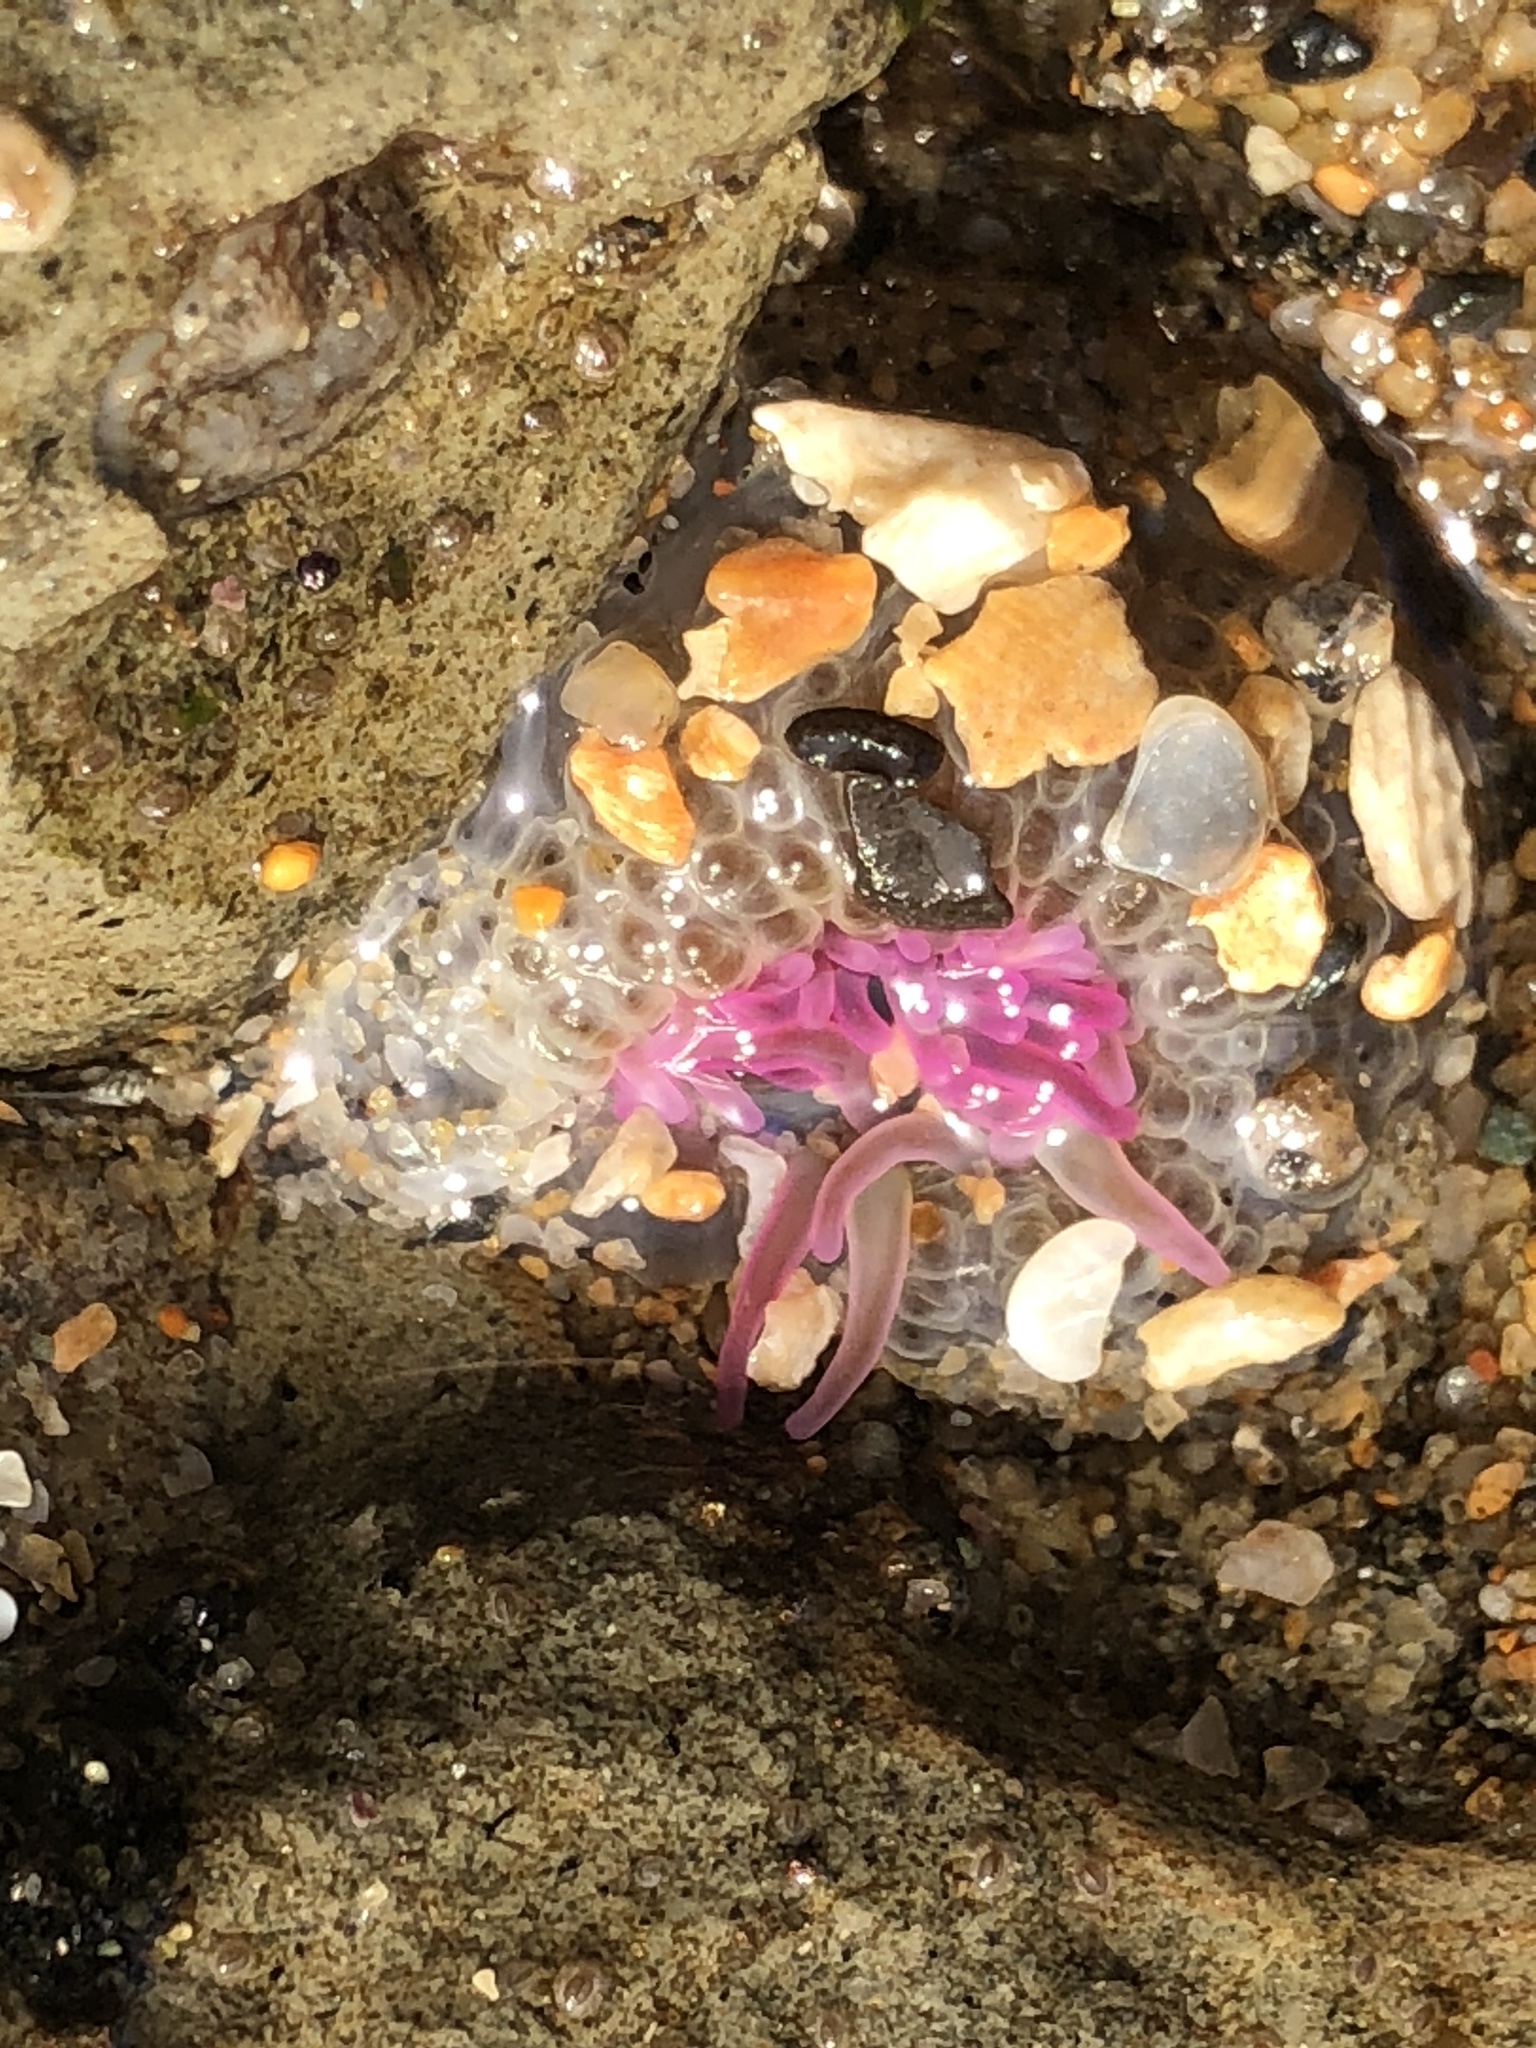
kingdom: Animalia
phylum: Cnidaria
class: Anthozoa
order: Actiniaria
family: Actiniidae
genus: Anthopleura
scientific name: Anthopleura elegantissima
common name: Clonal anemone
